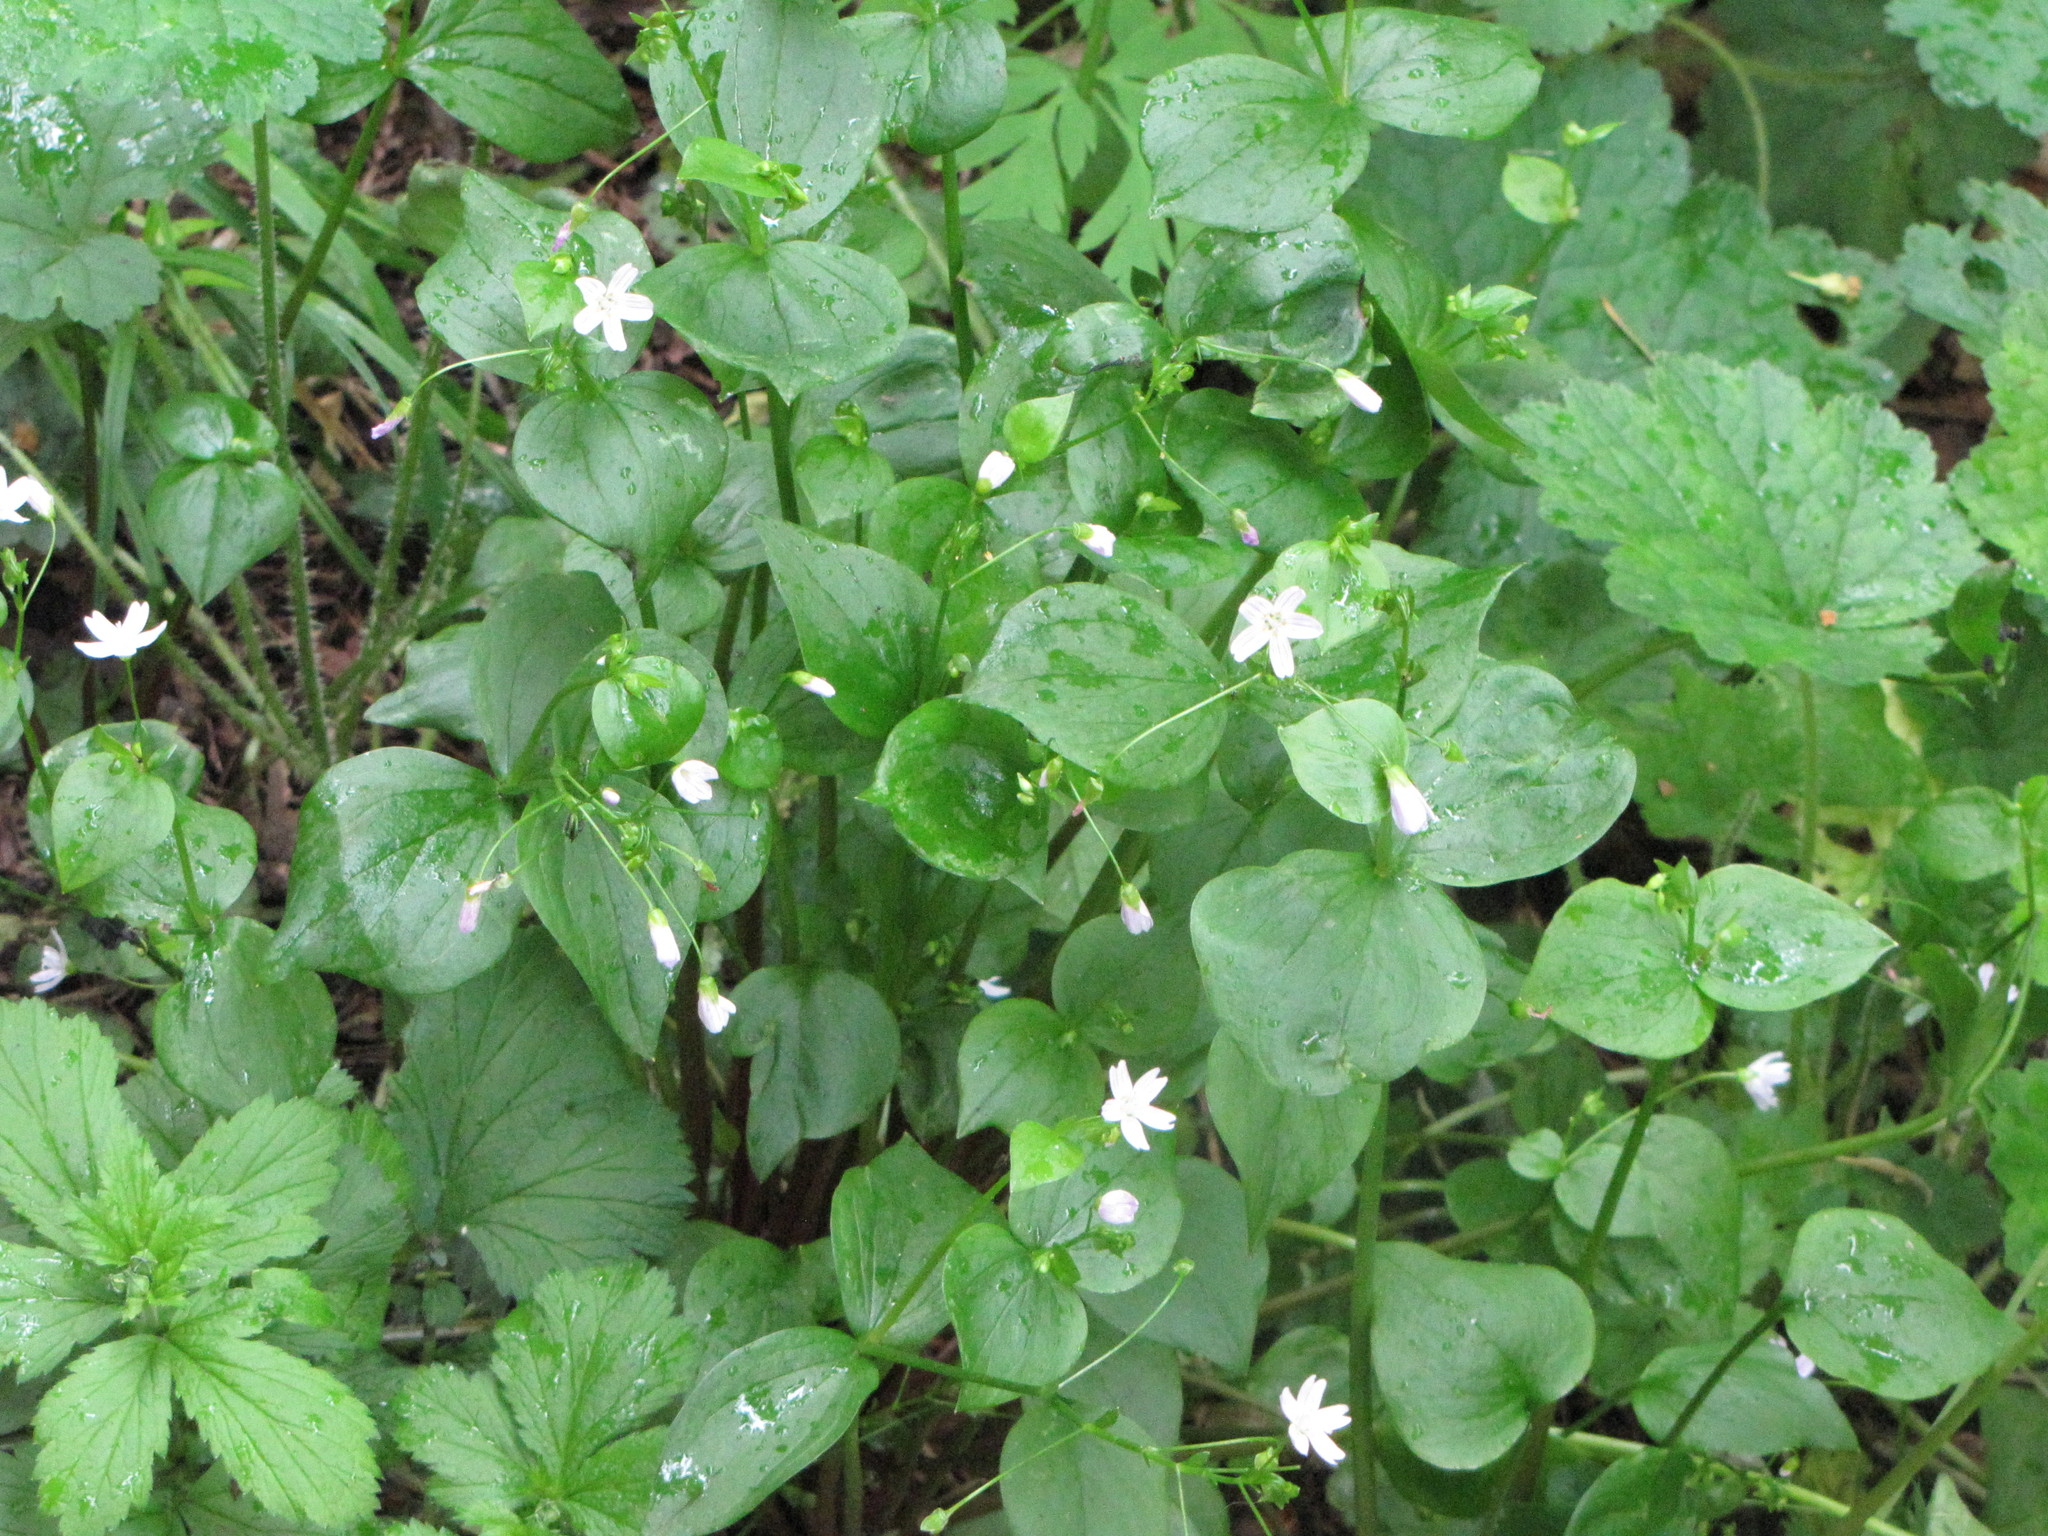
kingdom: Plantae
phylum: Tracheophyta
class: Magnoliopsida
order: Caryophyllales
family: Montiaceae
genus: Claytonia
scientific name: Claytonia sibirica
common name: Pink purslane
